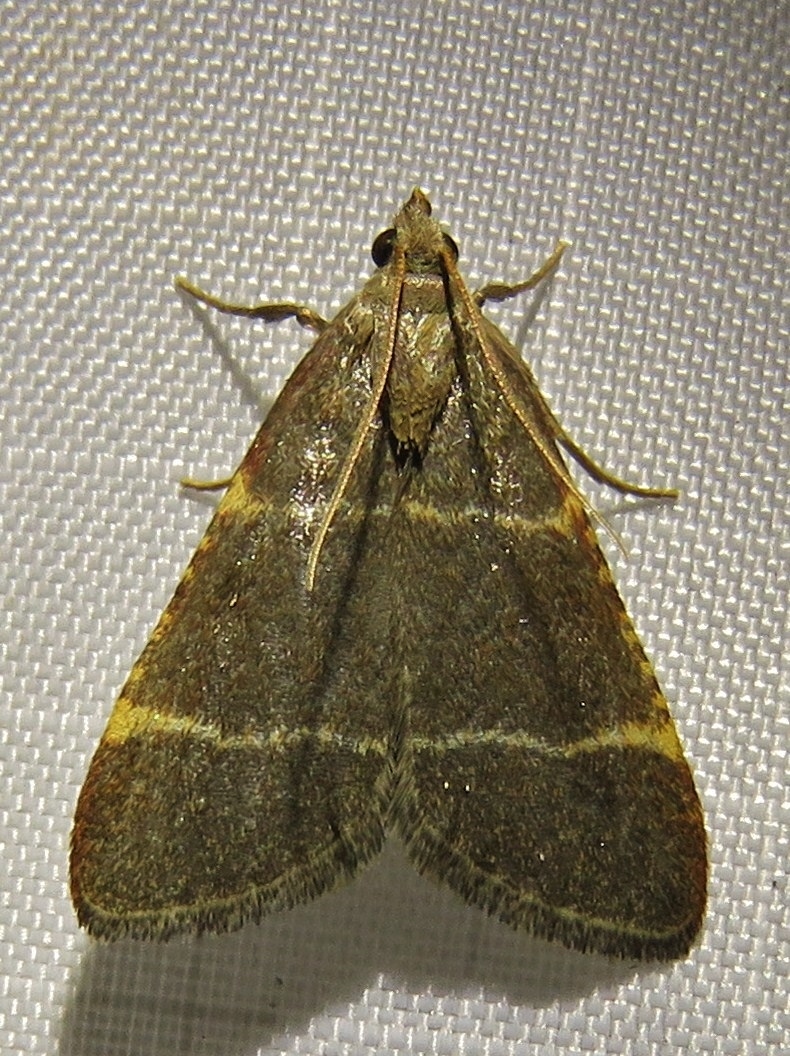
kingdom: Animalia
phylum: Arthropoda
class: Insecta
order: Lepidoptera
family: Pyralidae
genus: Hypsopygia
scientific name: Hypsopygia glaucinalis
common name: Double-striped tabby
